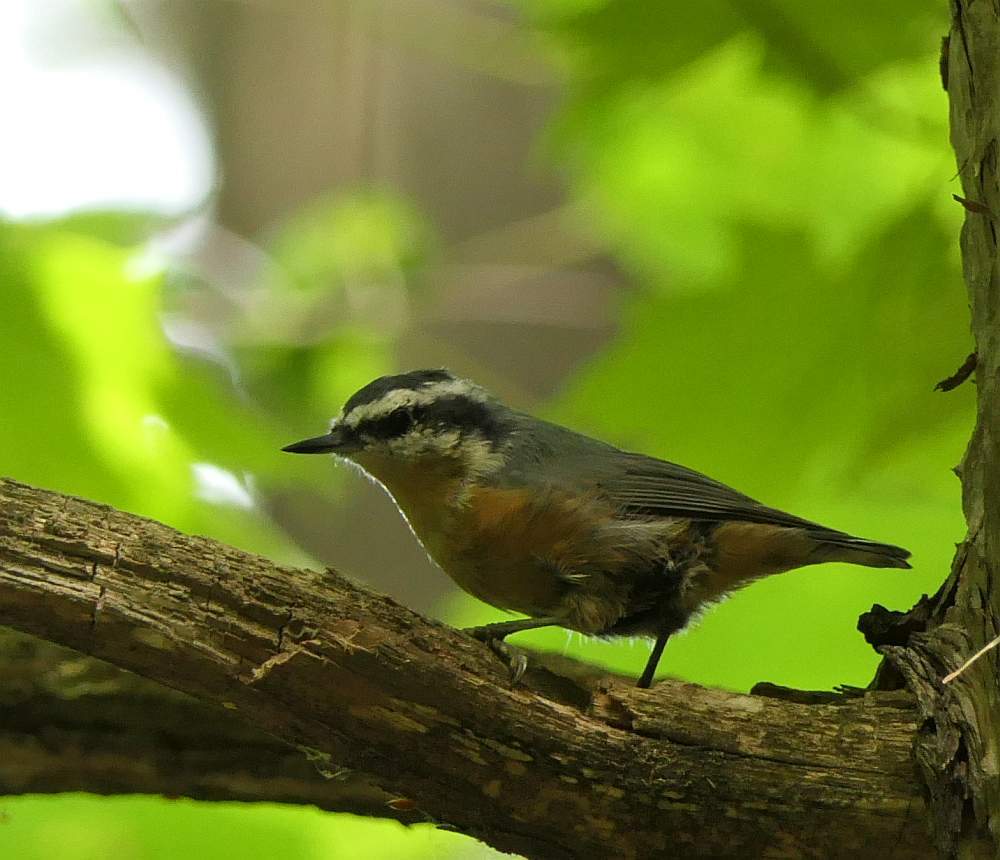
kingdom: Animalia
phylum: Chordata
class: Aves
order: Passeriformes
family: Sittidae
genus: Sitta
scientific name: Sitta canadensis
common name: Red-breasted nuthatch
